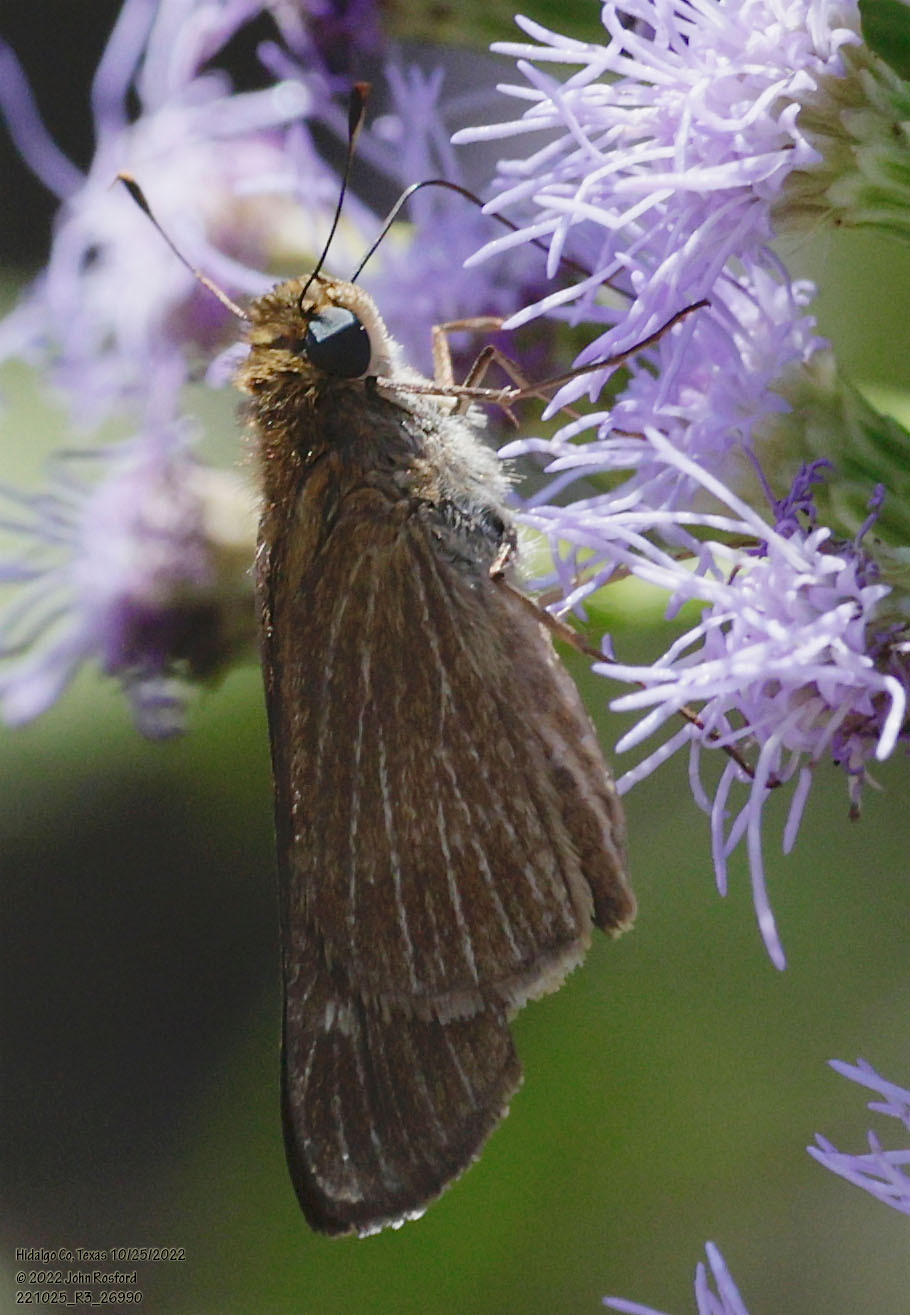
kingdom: Animalia
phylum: Arthropoda
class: Insecta
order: Lepidoptera
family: Hesperiidae
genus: Panoquina
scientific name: Panoquina ocola
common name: Ocola skipper
